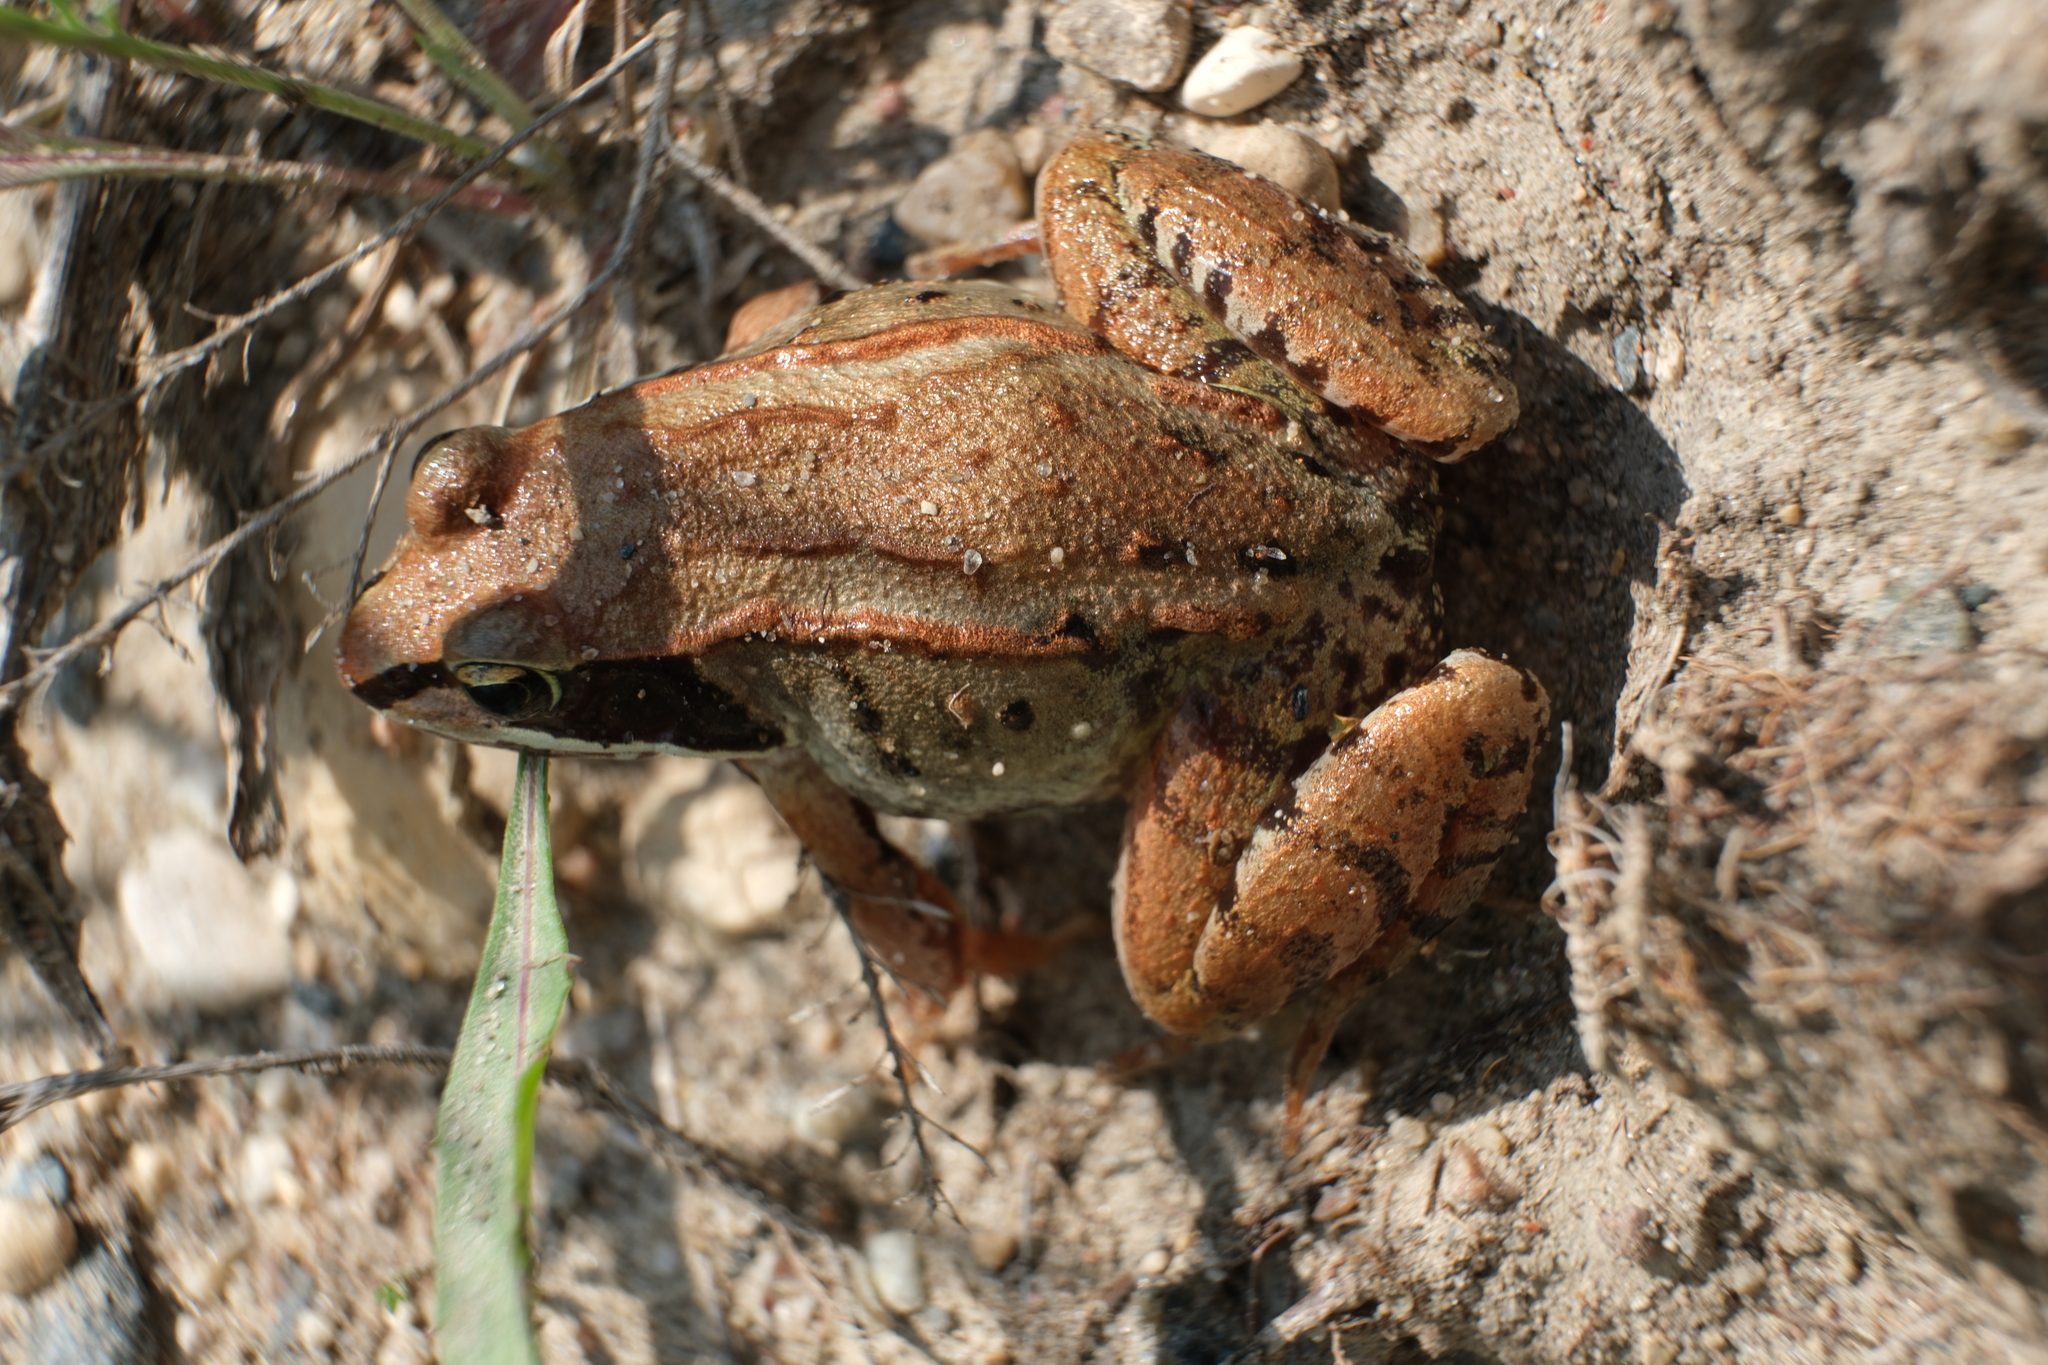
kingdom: Animalia
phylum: Chordata
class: Amphibia
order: Anura
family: Ranidae
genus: Lithobates
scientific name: Lithobates sylvaticus
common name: Wood frog
